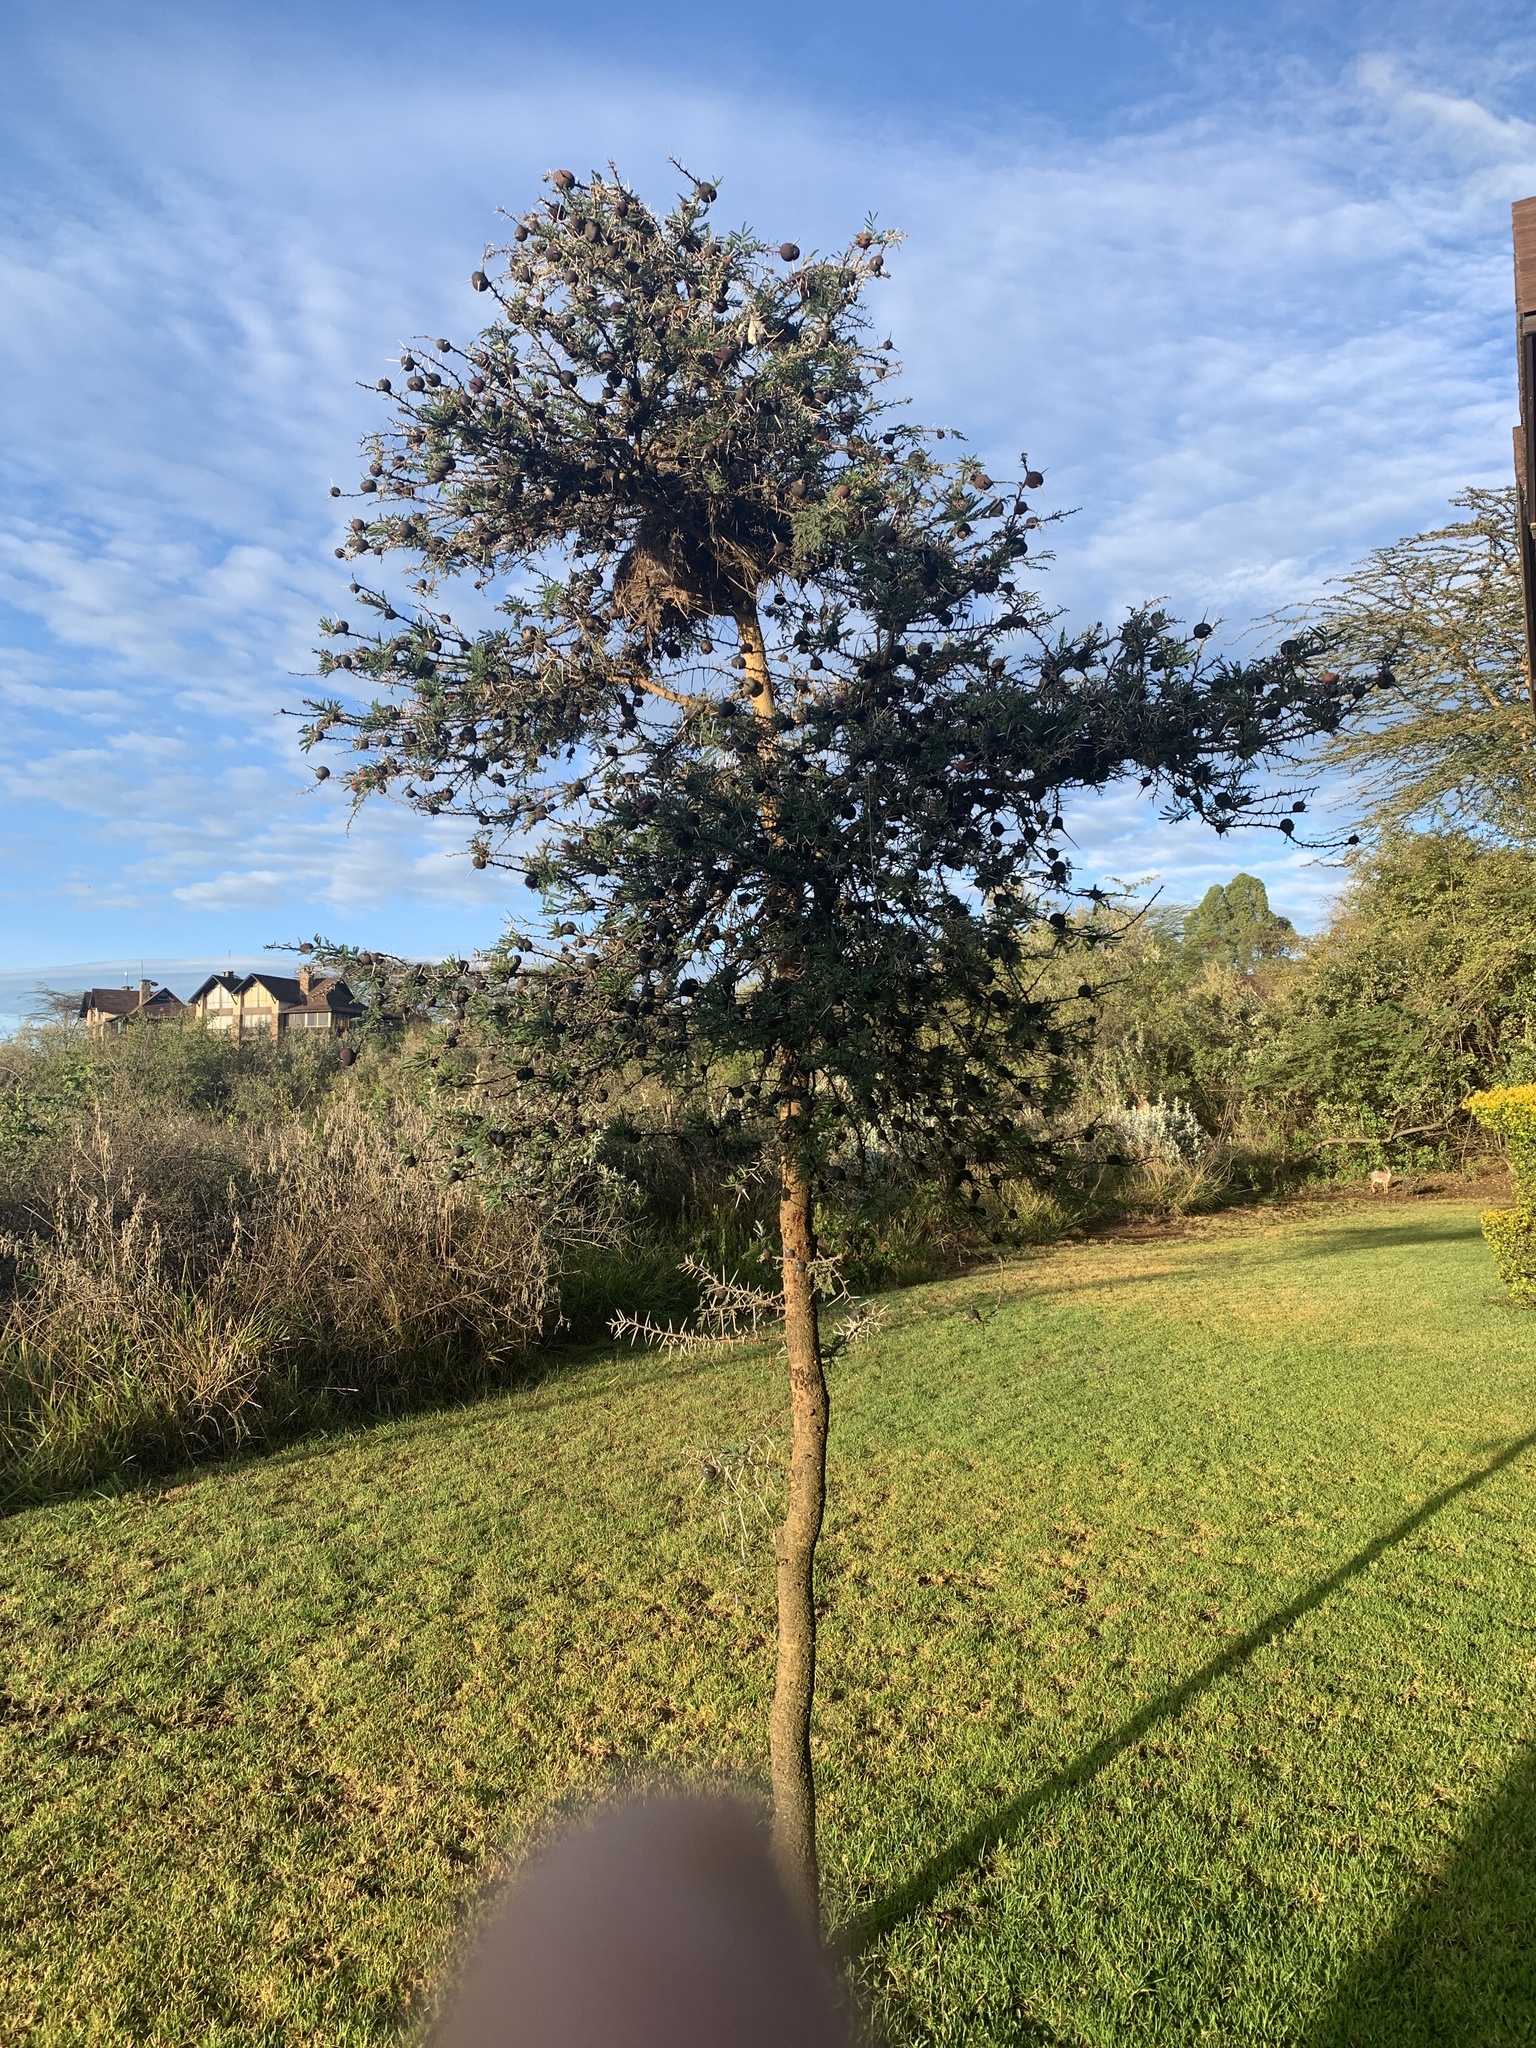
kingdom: Plantae
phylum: Tracheophyta
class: Magnoliopsida
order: Fabales
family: Fabaceae
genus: Vachellia
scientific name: Vachellia drepanolobium
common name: Whistling thorn
